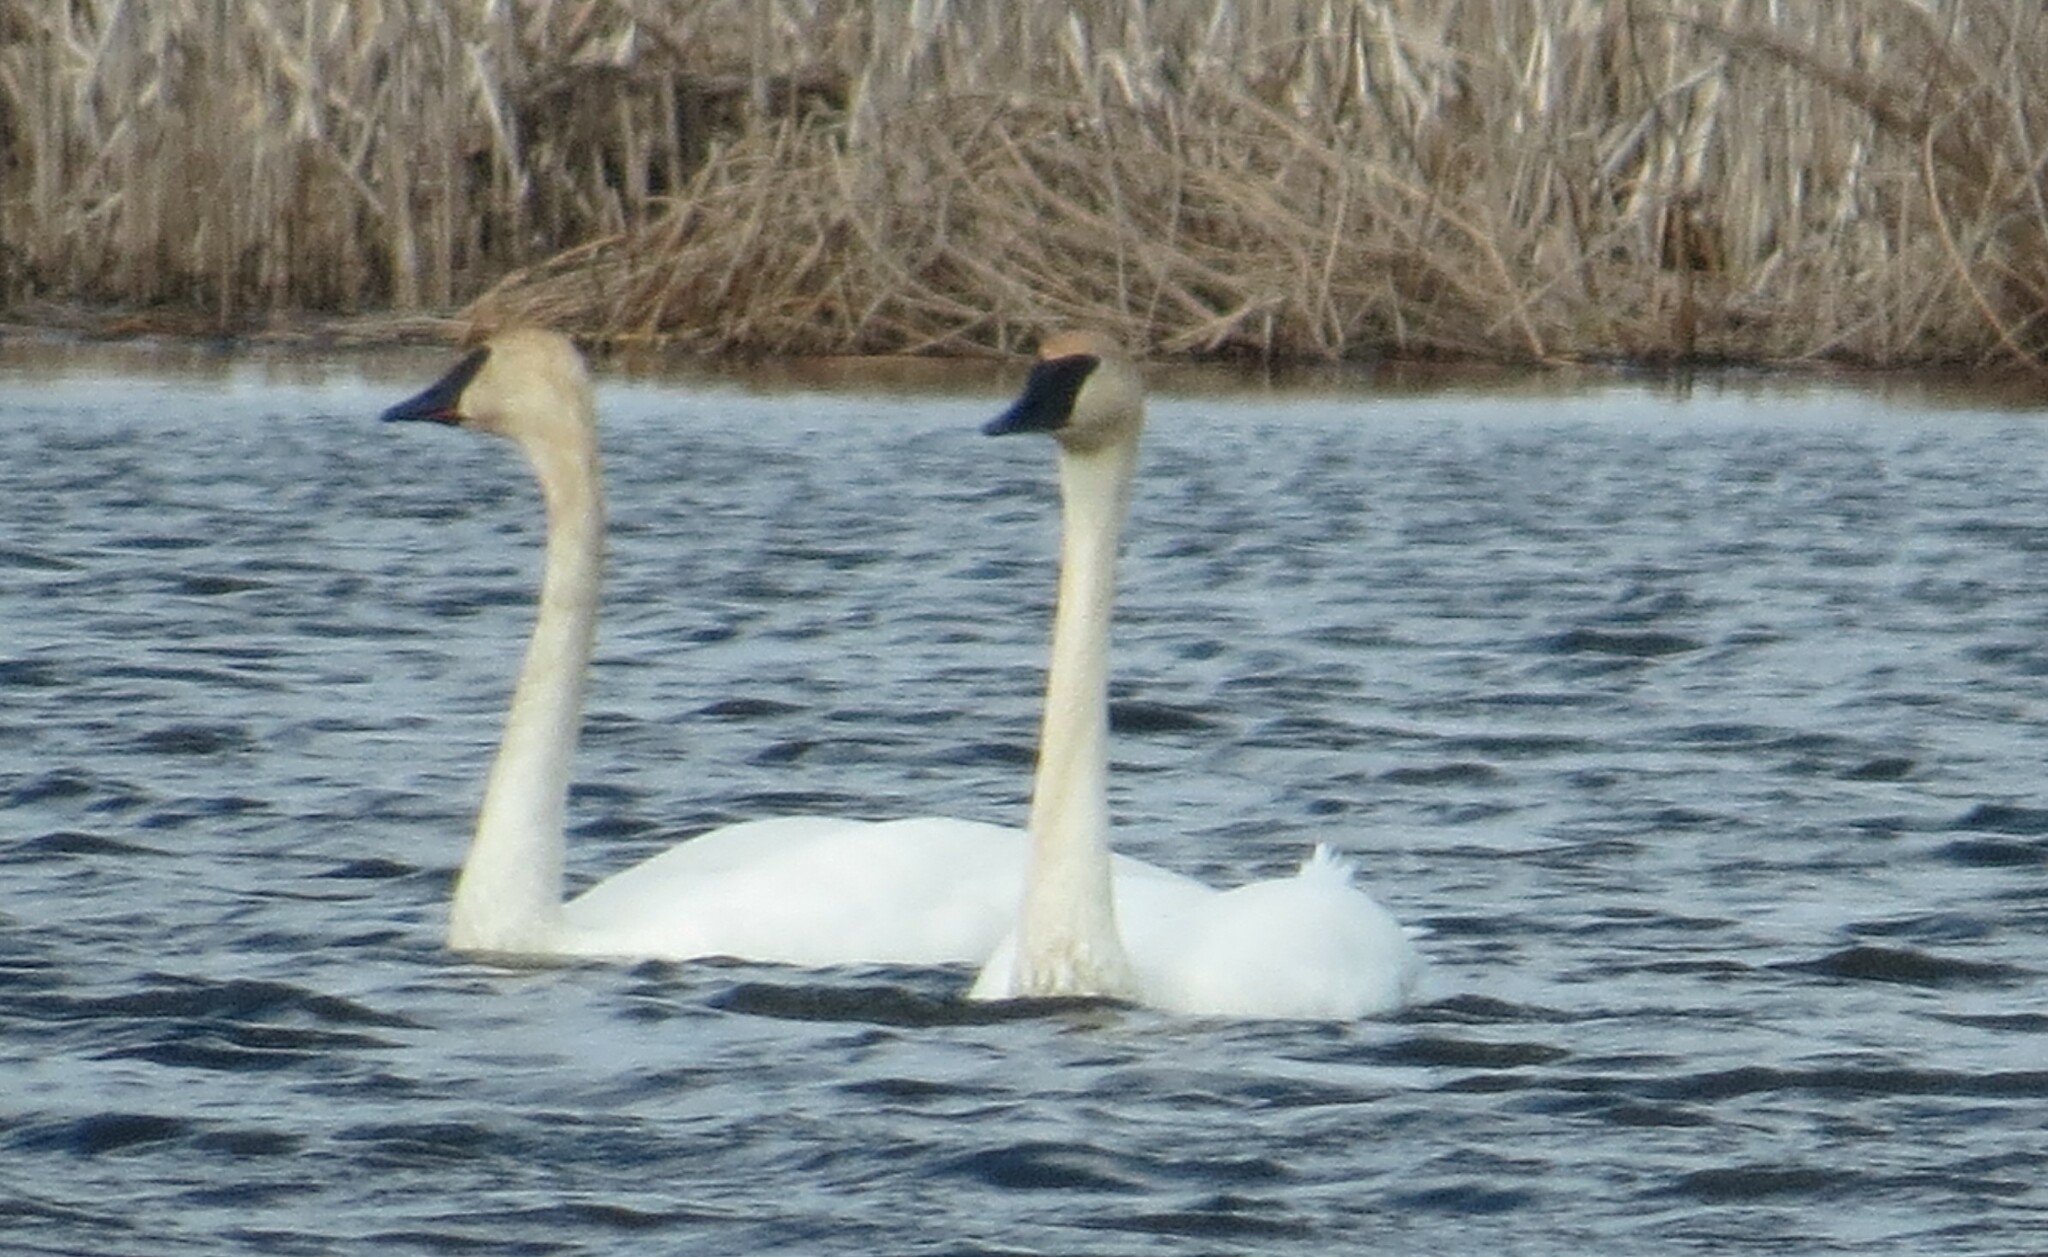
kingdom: Animalia
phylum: Chordata
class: Aves
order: Anseriformes
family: Anatidae
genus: Cygnus
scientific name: Cygnus buccinator
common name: Trumpeter swan
